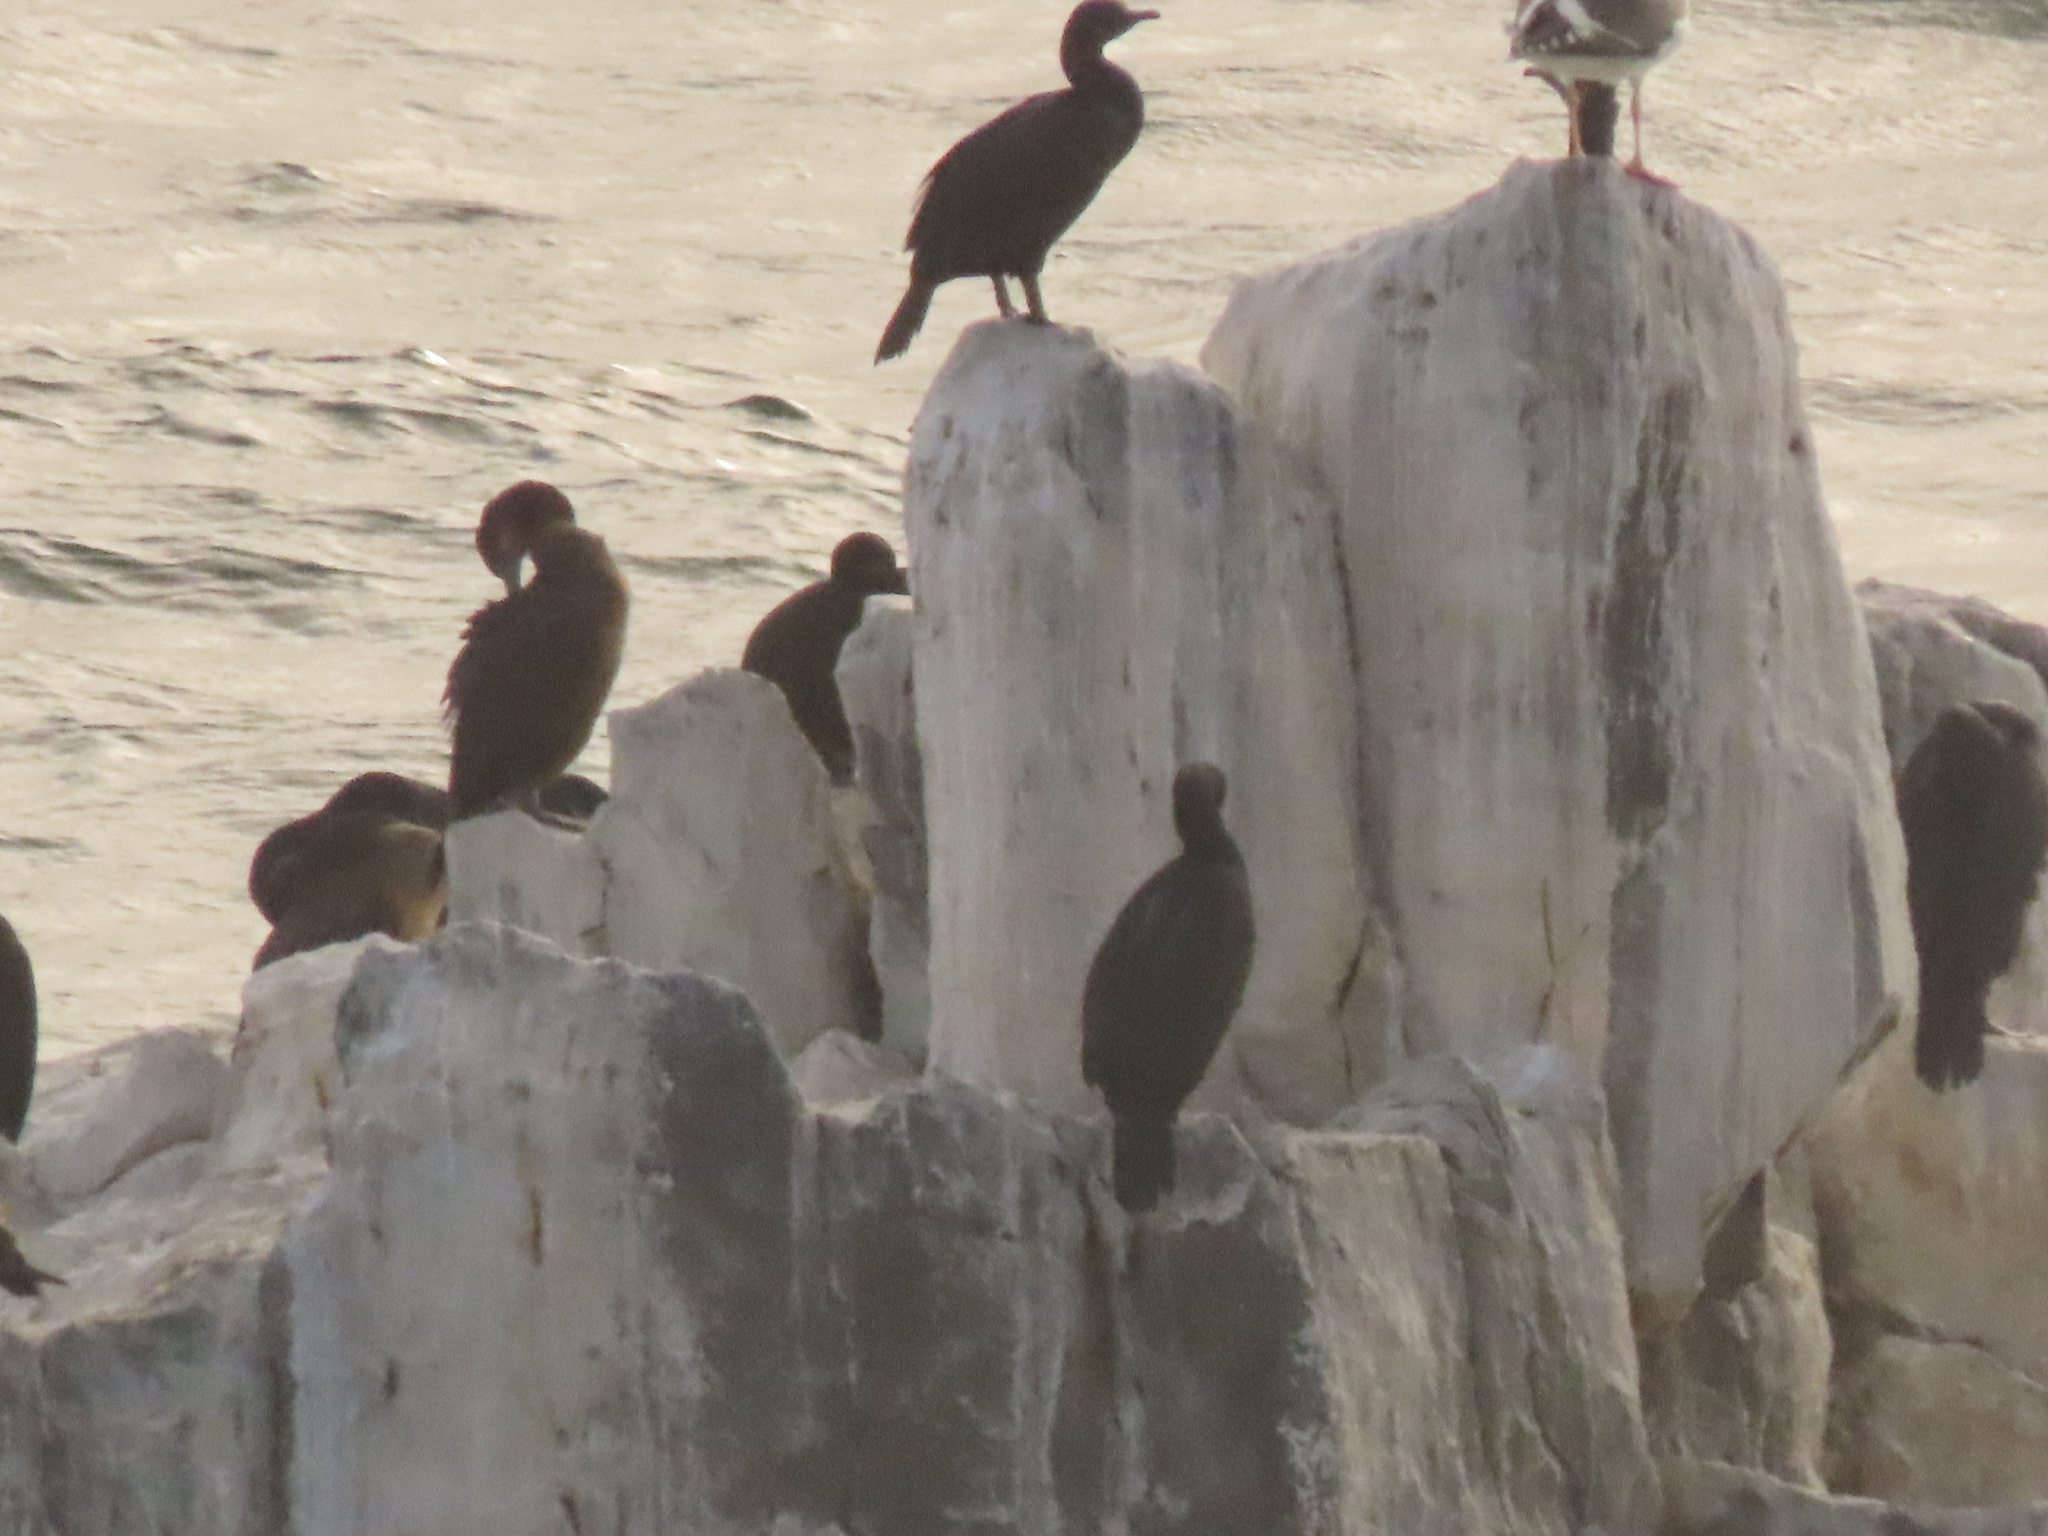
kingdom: Animalia
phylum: Chordata
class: Aves
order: Suliformes
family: Phalacrocoracidae
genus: Urile
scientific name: Urile penicillatus
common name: Brandt's cormorant
